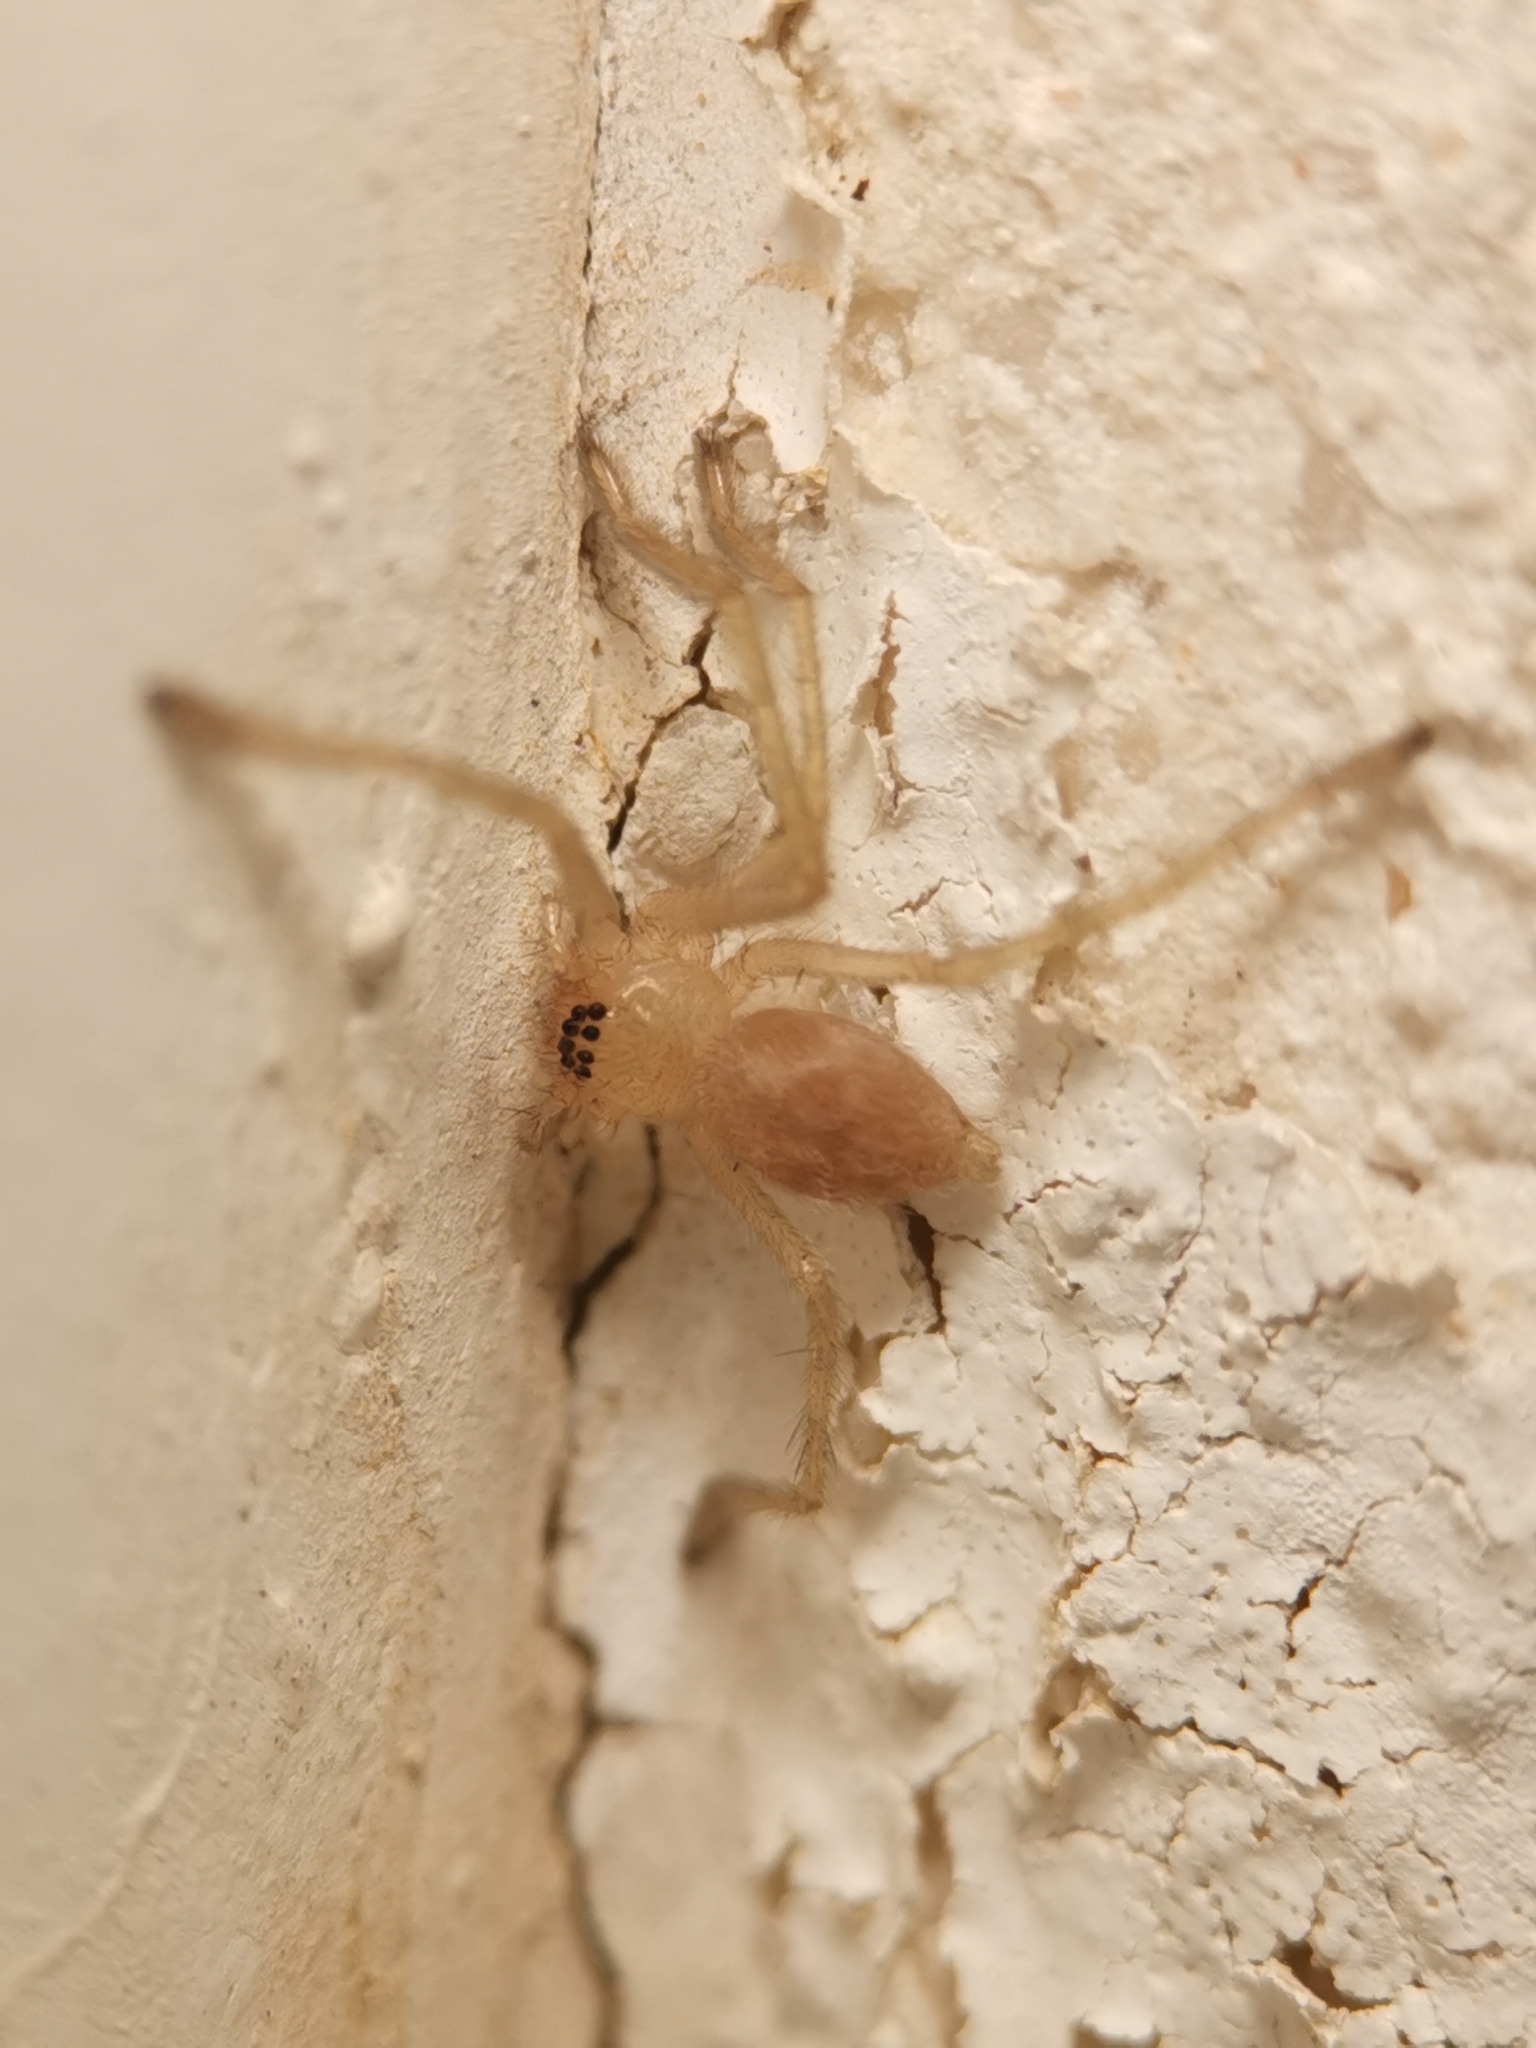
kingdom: Animalia
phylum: Arthropoda
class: Arachnida
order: Araneae
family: Sparassidae
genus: Olios
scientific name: Olios argelasius
